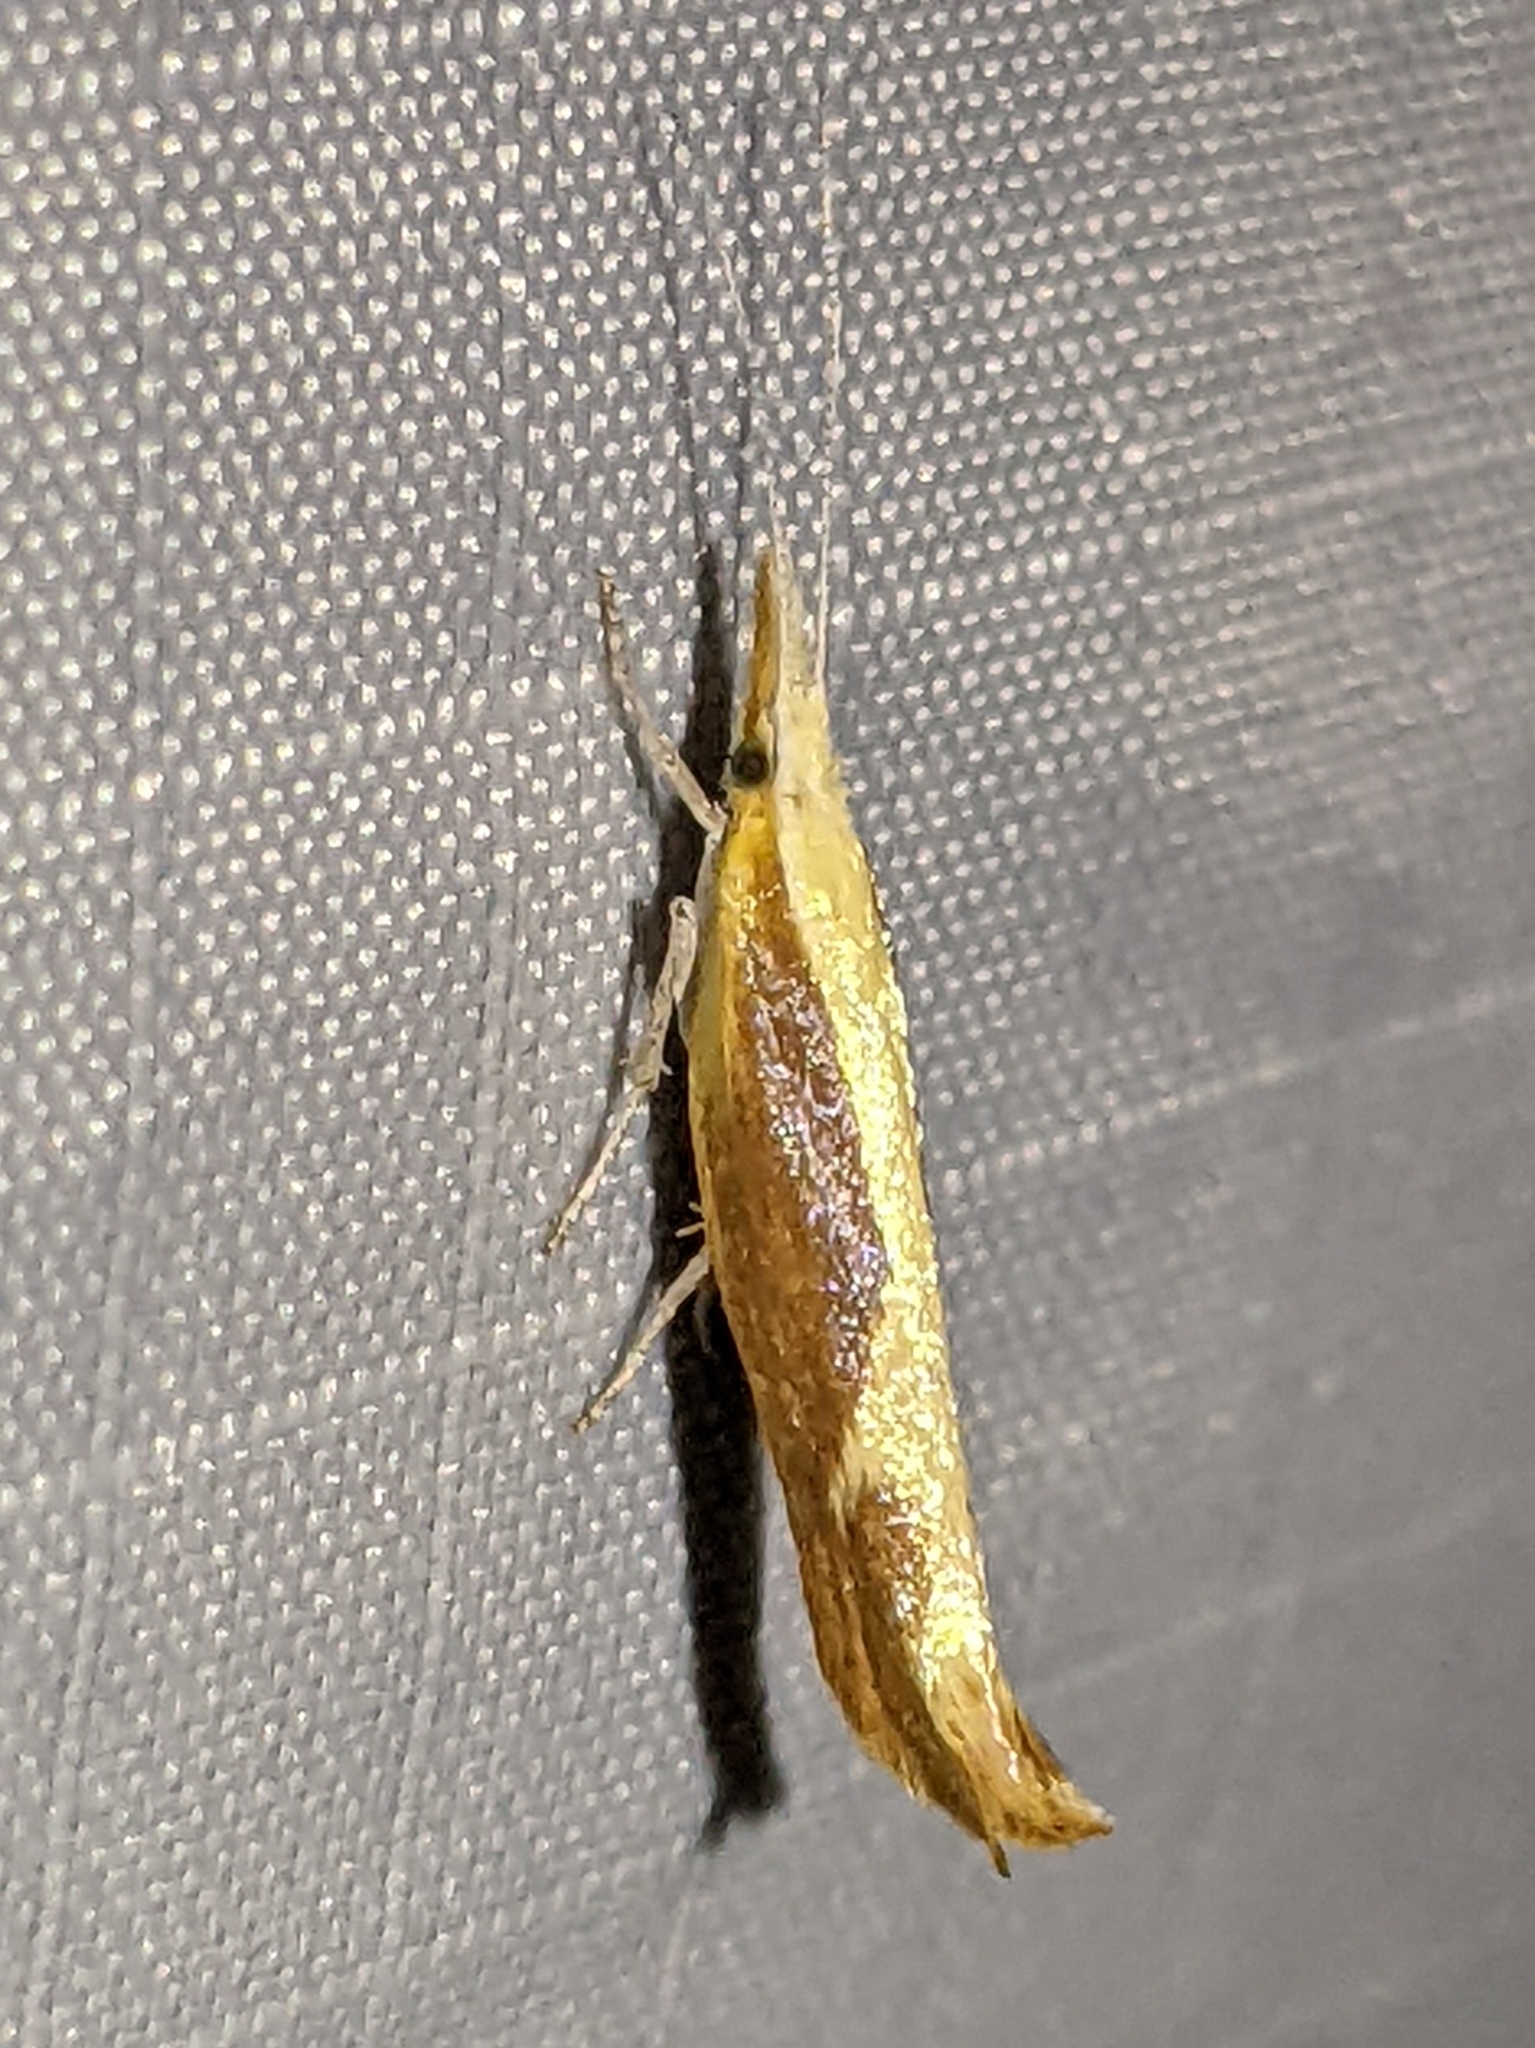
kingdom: Animalia
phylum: Arthropoda
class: Insecta
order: Lepidoptera
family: Ypsolophidae
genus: Ypsolopha
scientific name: Ypsolopha
